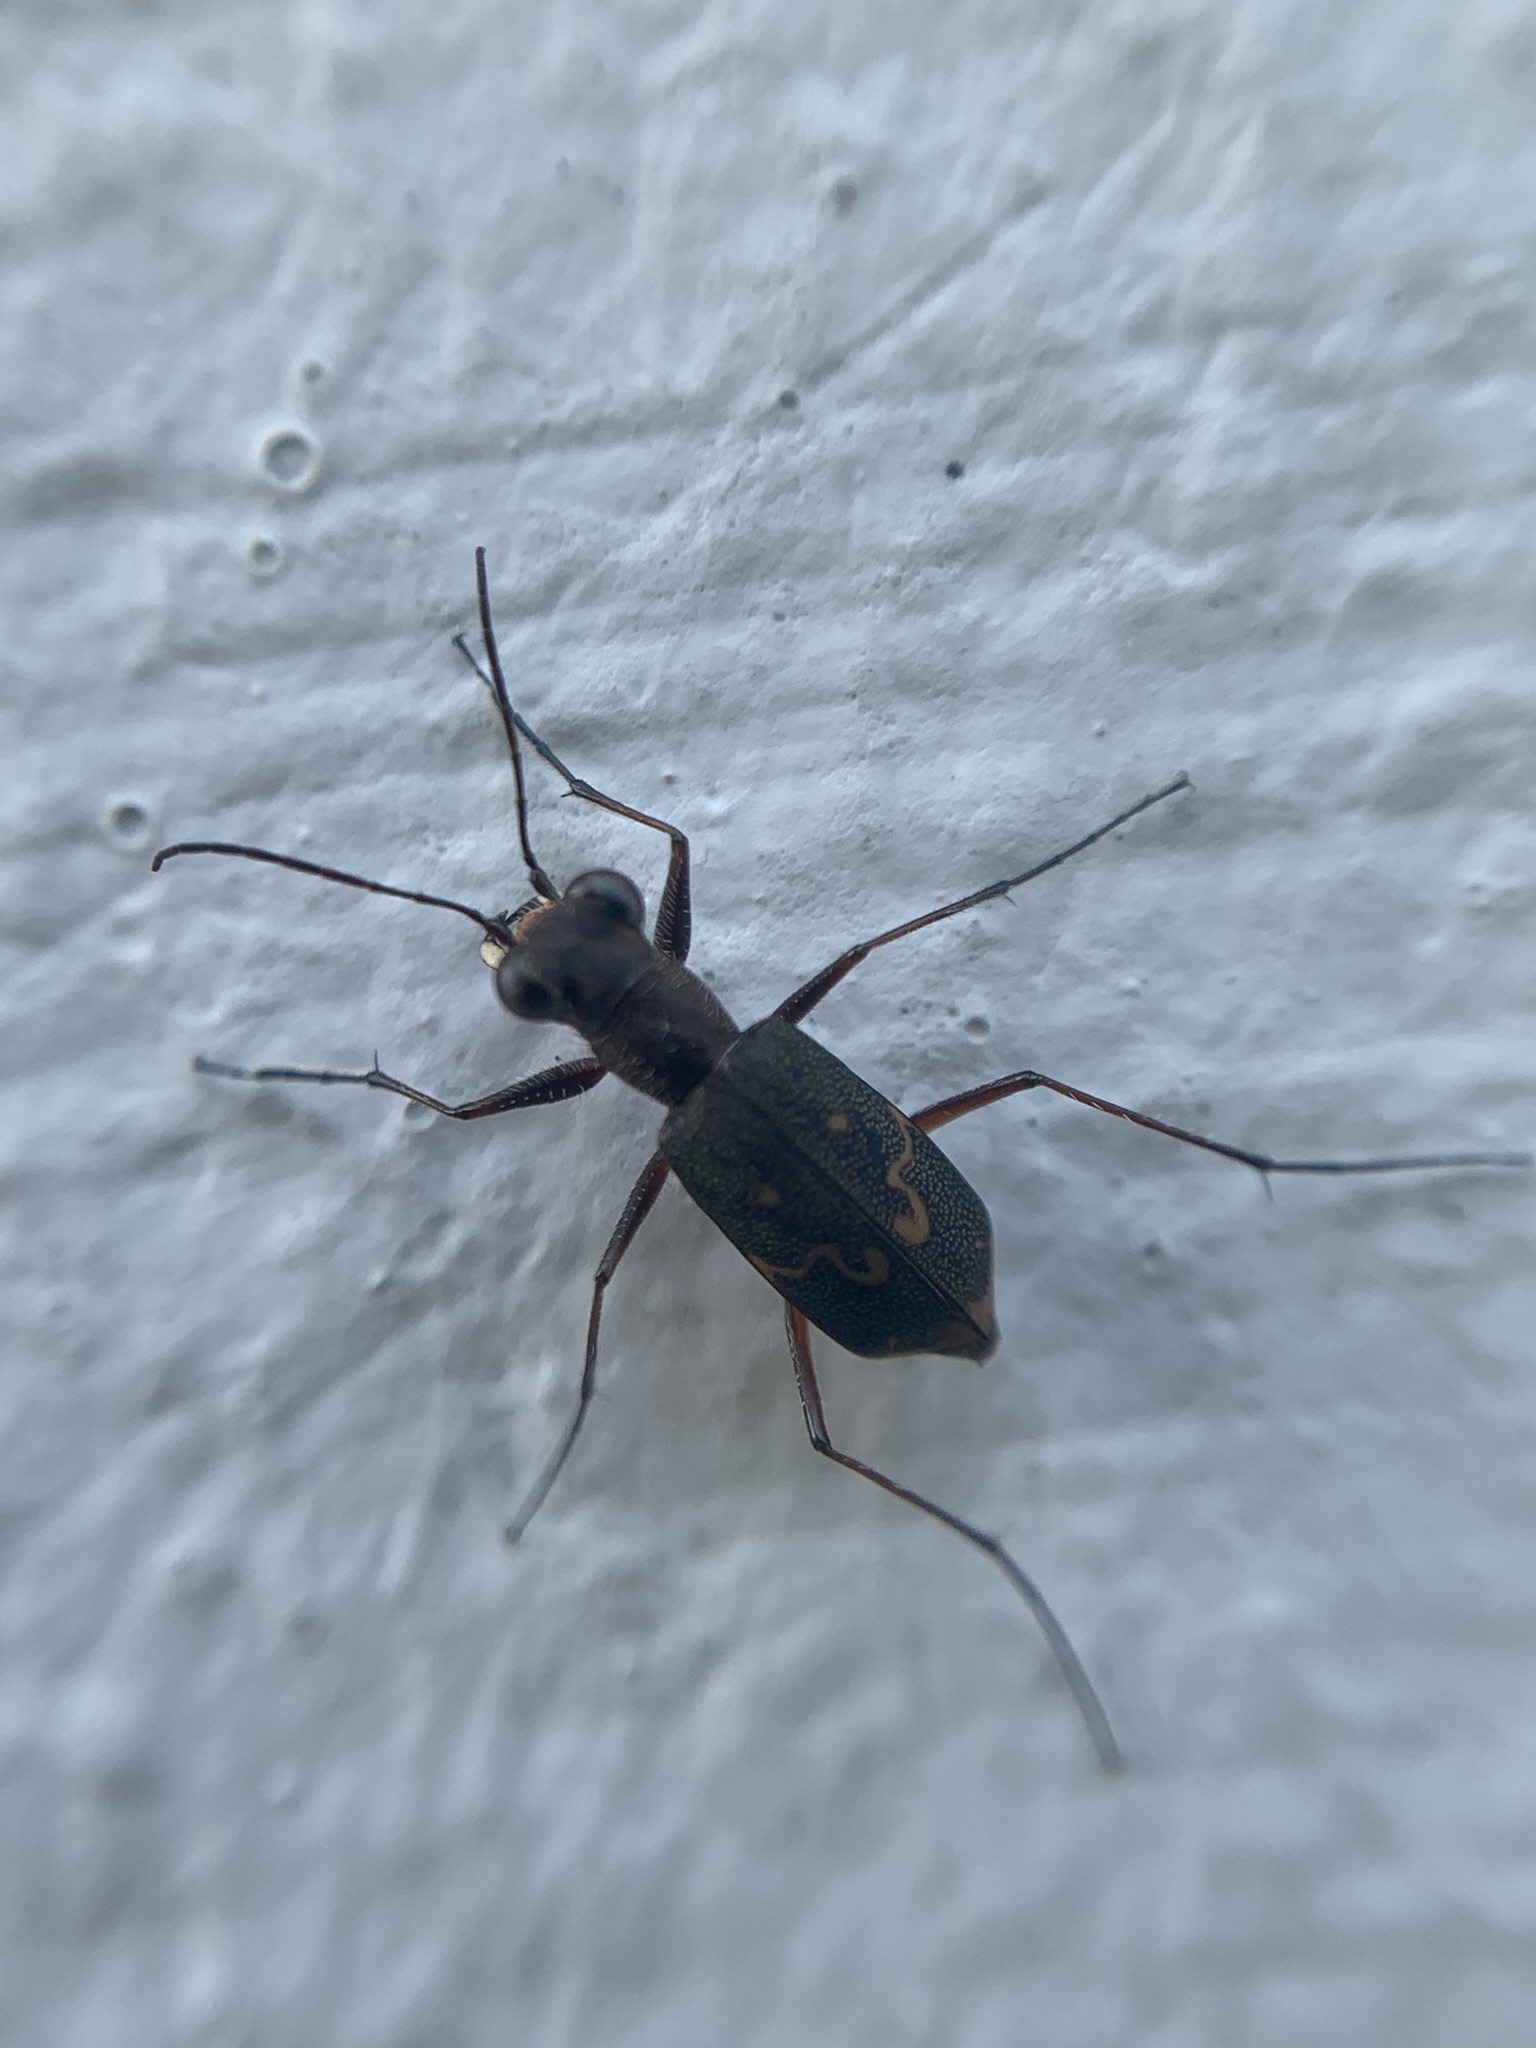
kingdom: Animalia
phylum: Arthropoda
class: Insecta
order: Coleoptera
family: Carabidae
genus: Cicindela
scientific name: Cicindela trifasciata
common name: Mudflat tiger beetle
